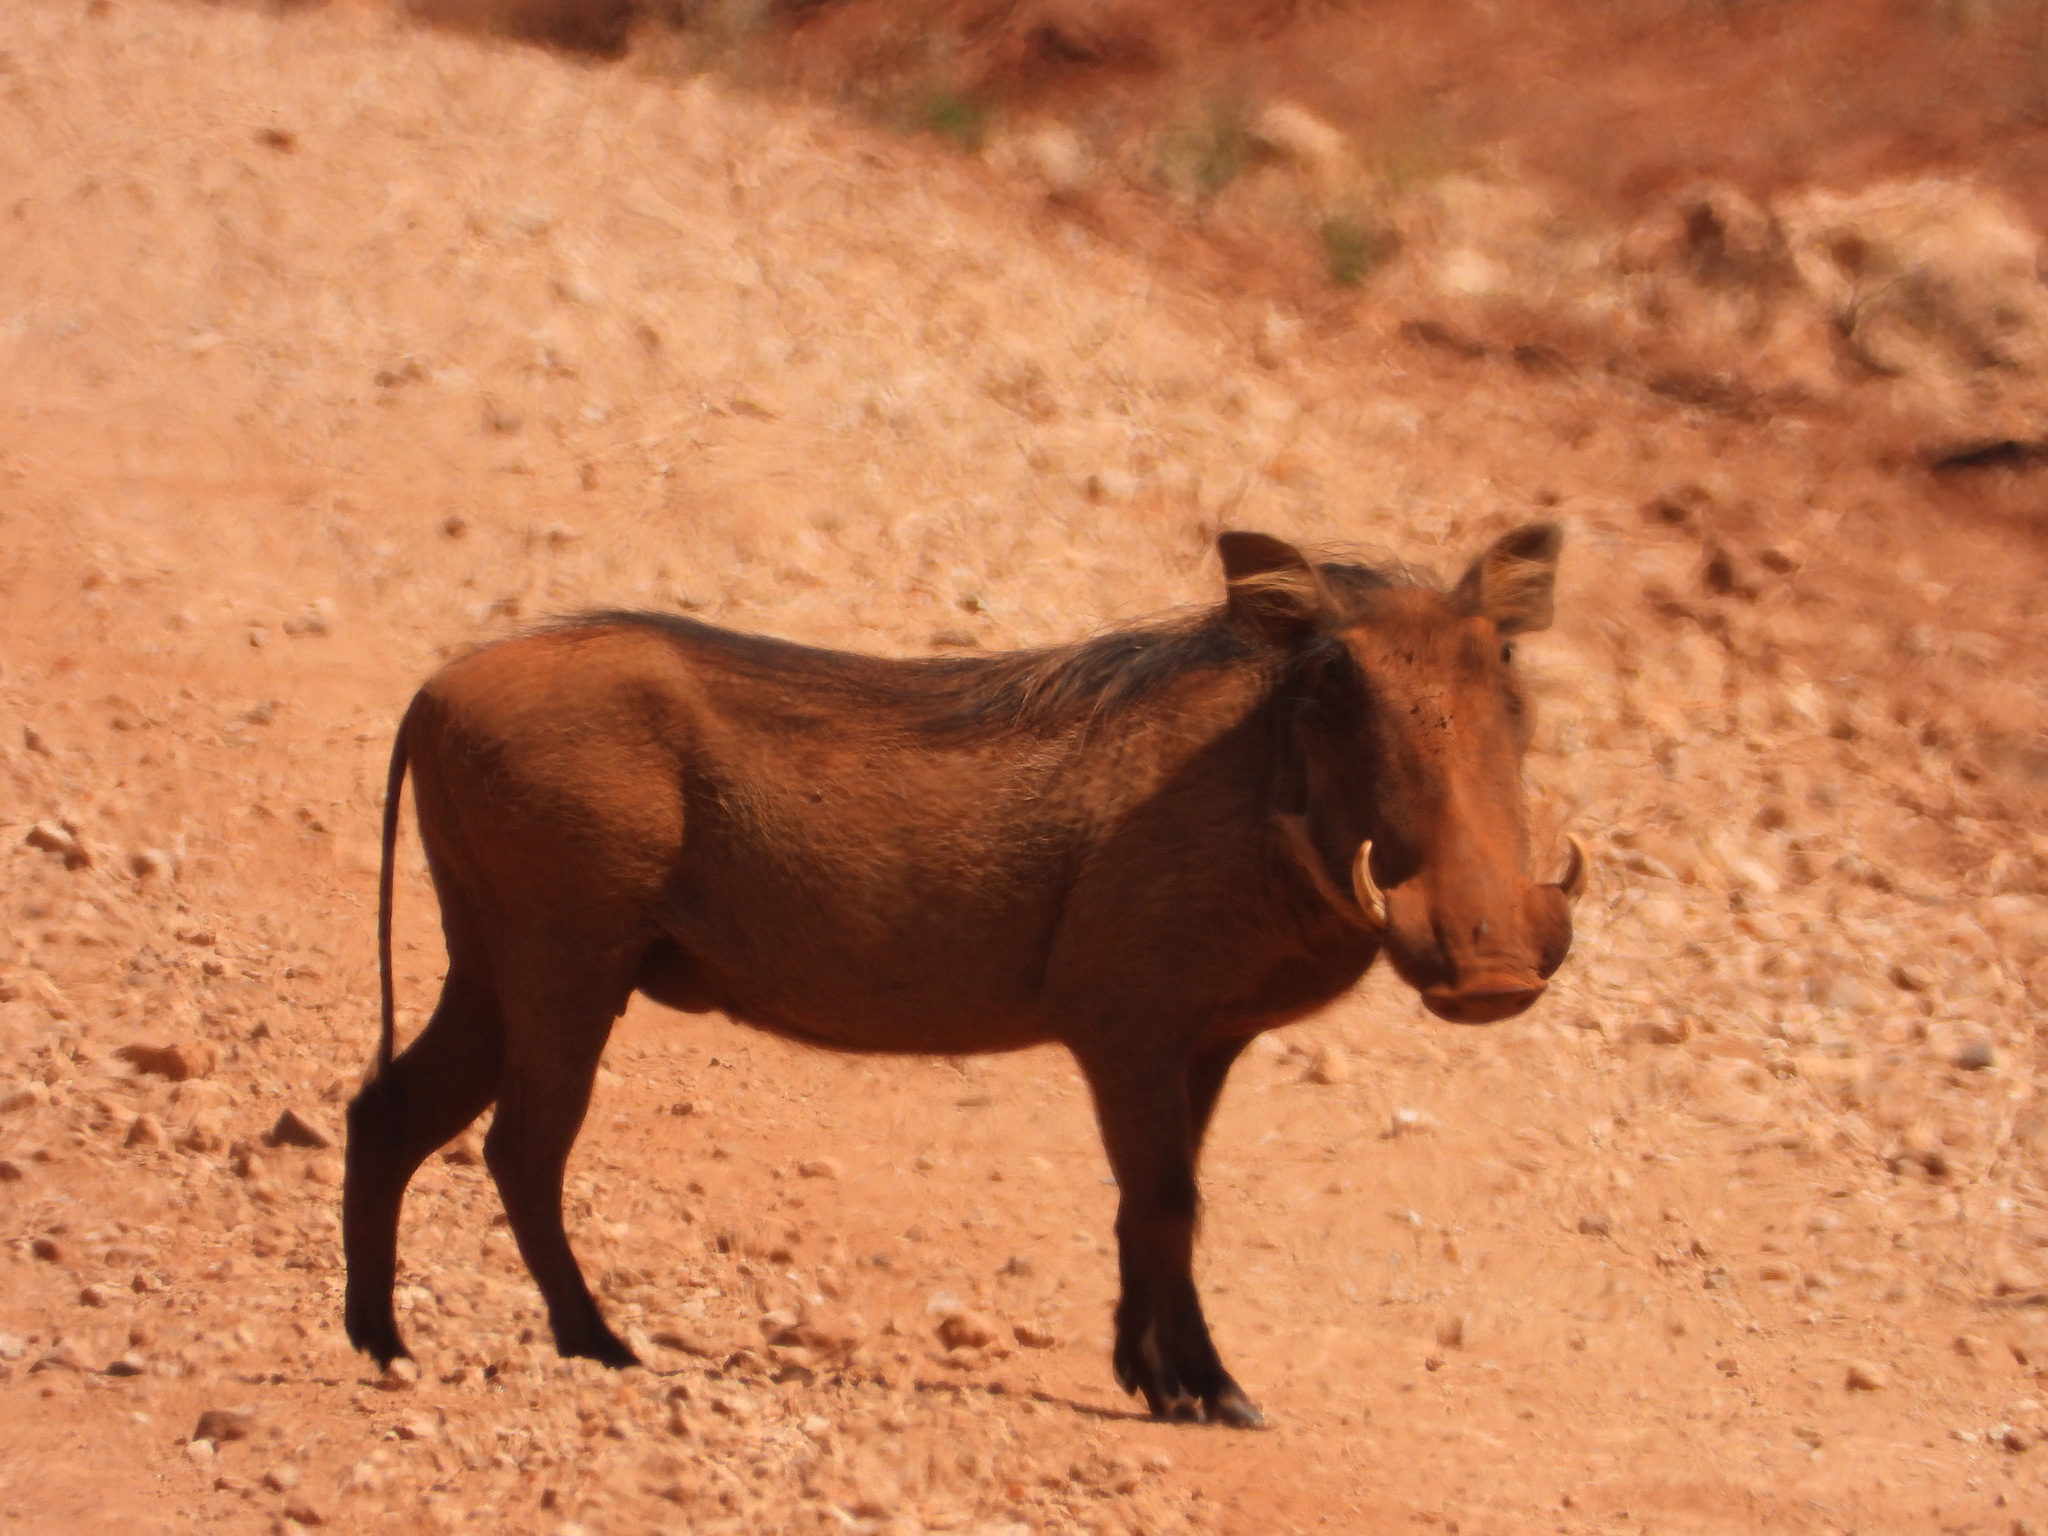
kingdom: Animalia
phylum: Chordata
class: Mammalia
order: Artiodactyla
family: Suidae
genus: Phacochoerus
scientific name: Phacochoerus africanus
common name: Common warthog
